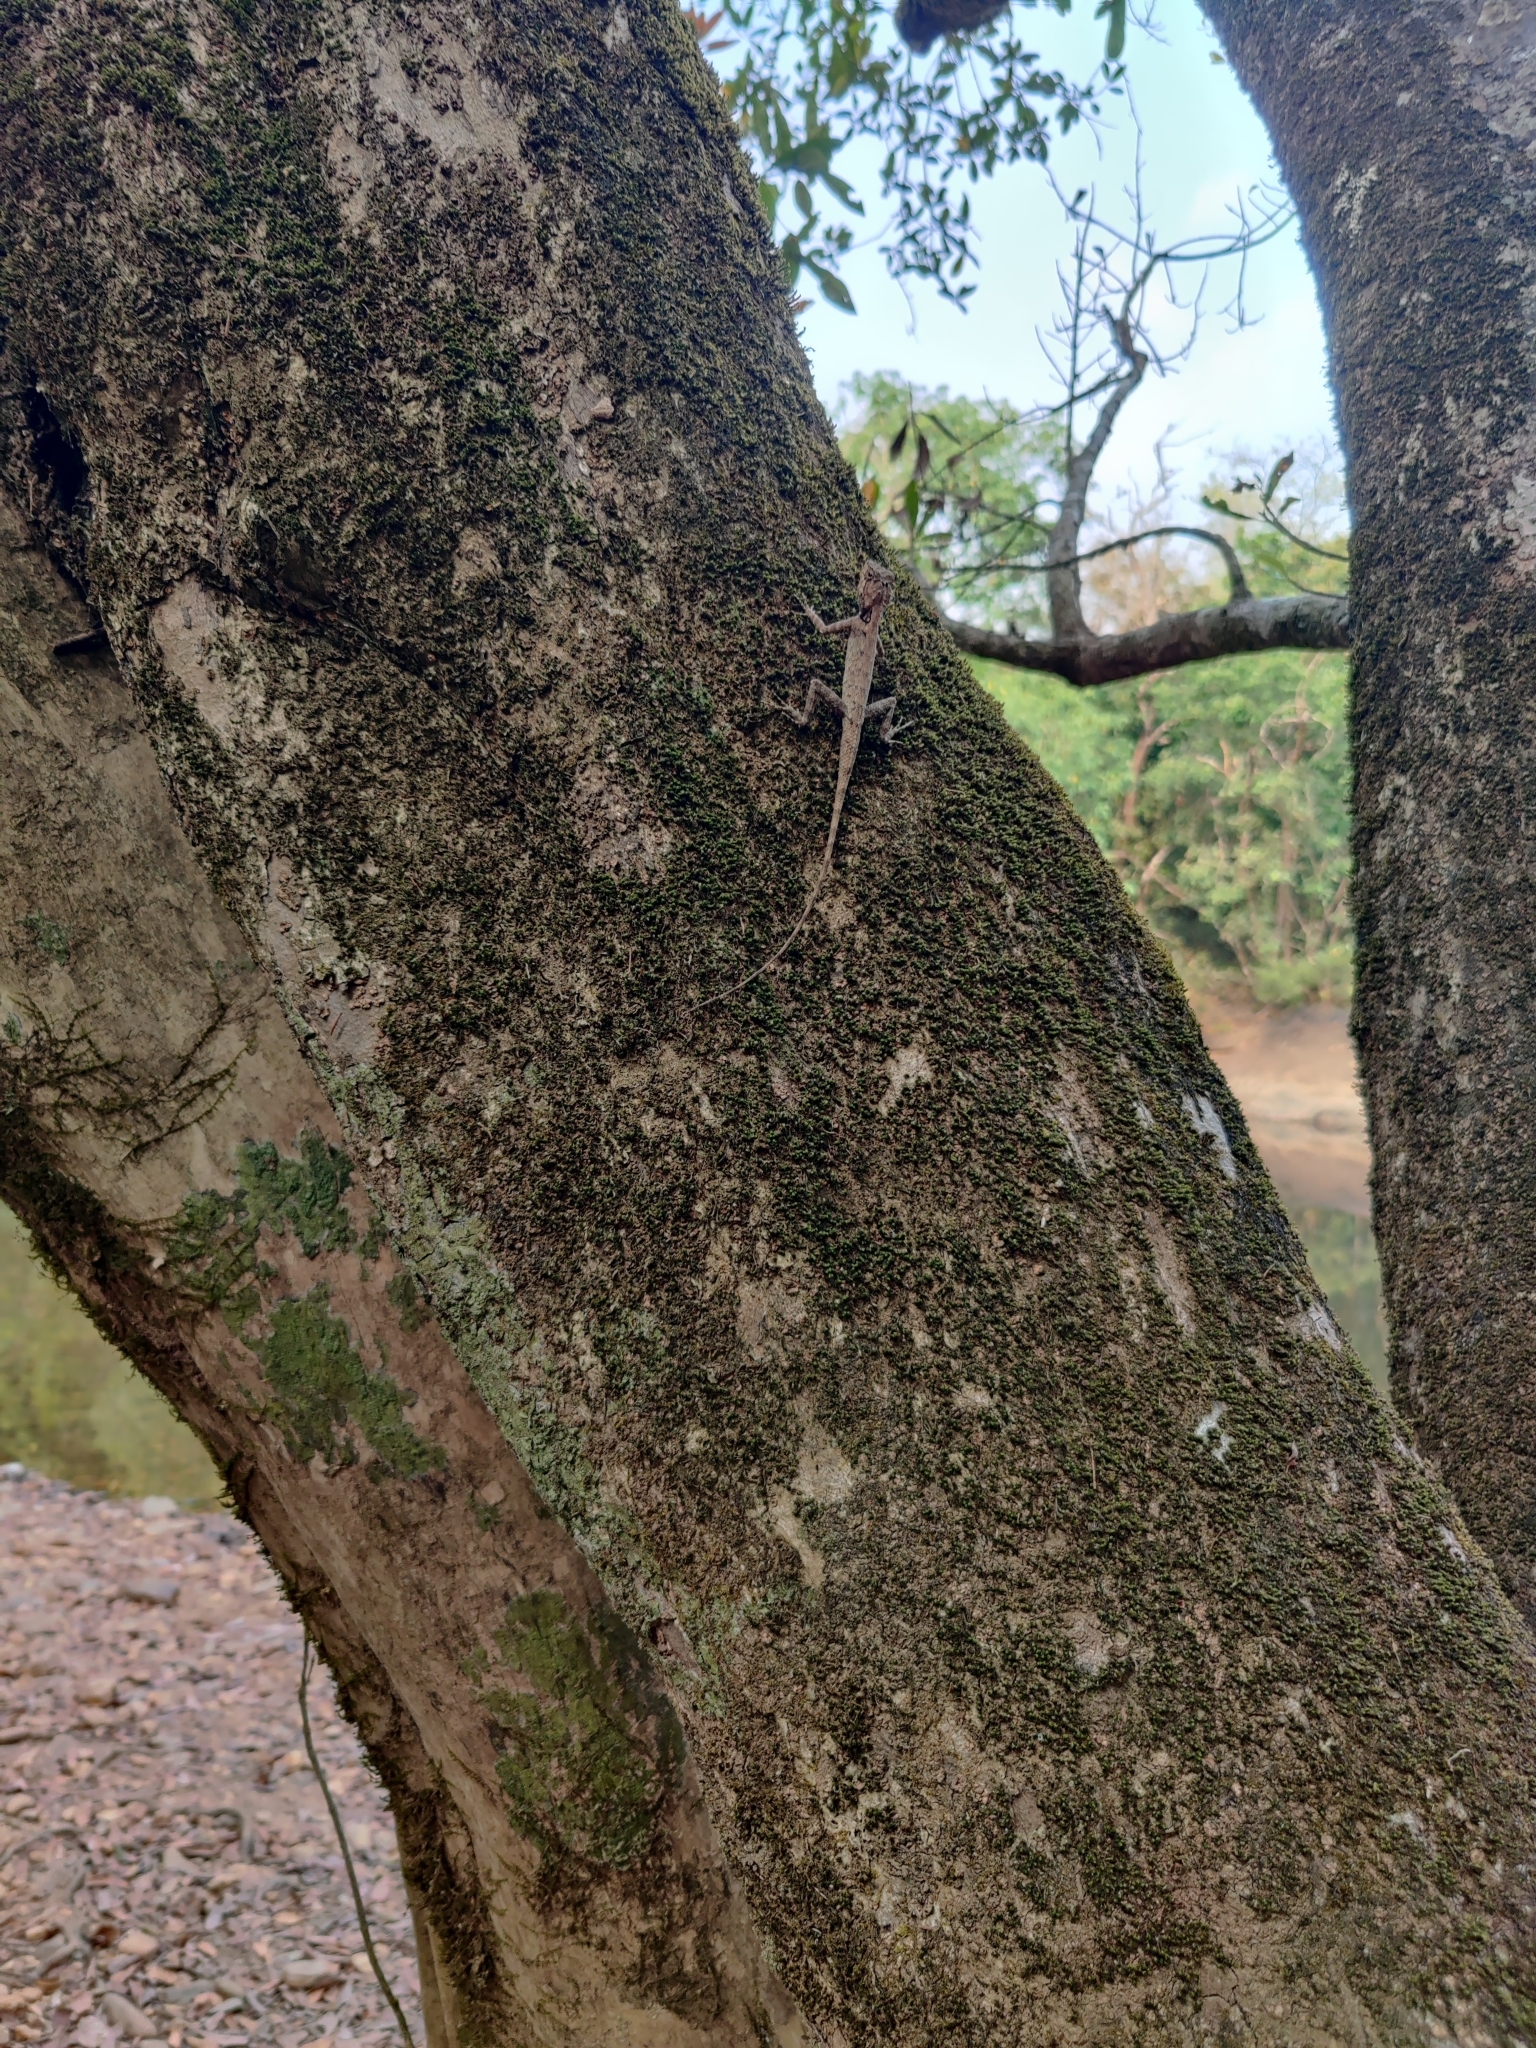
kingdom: Animalia
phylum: Chordata
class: Squamata
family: Agamidae
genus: Monilesaurus
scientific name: Monilesaurus rouxii
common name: Roux's forest lizard
